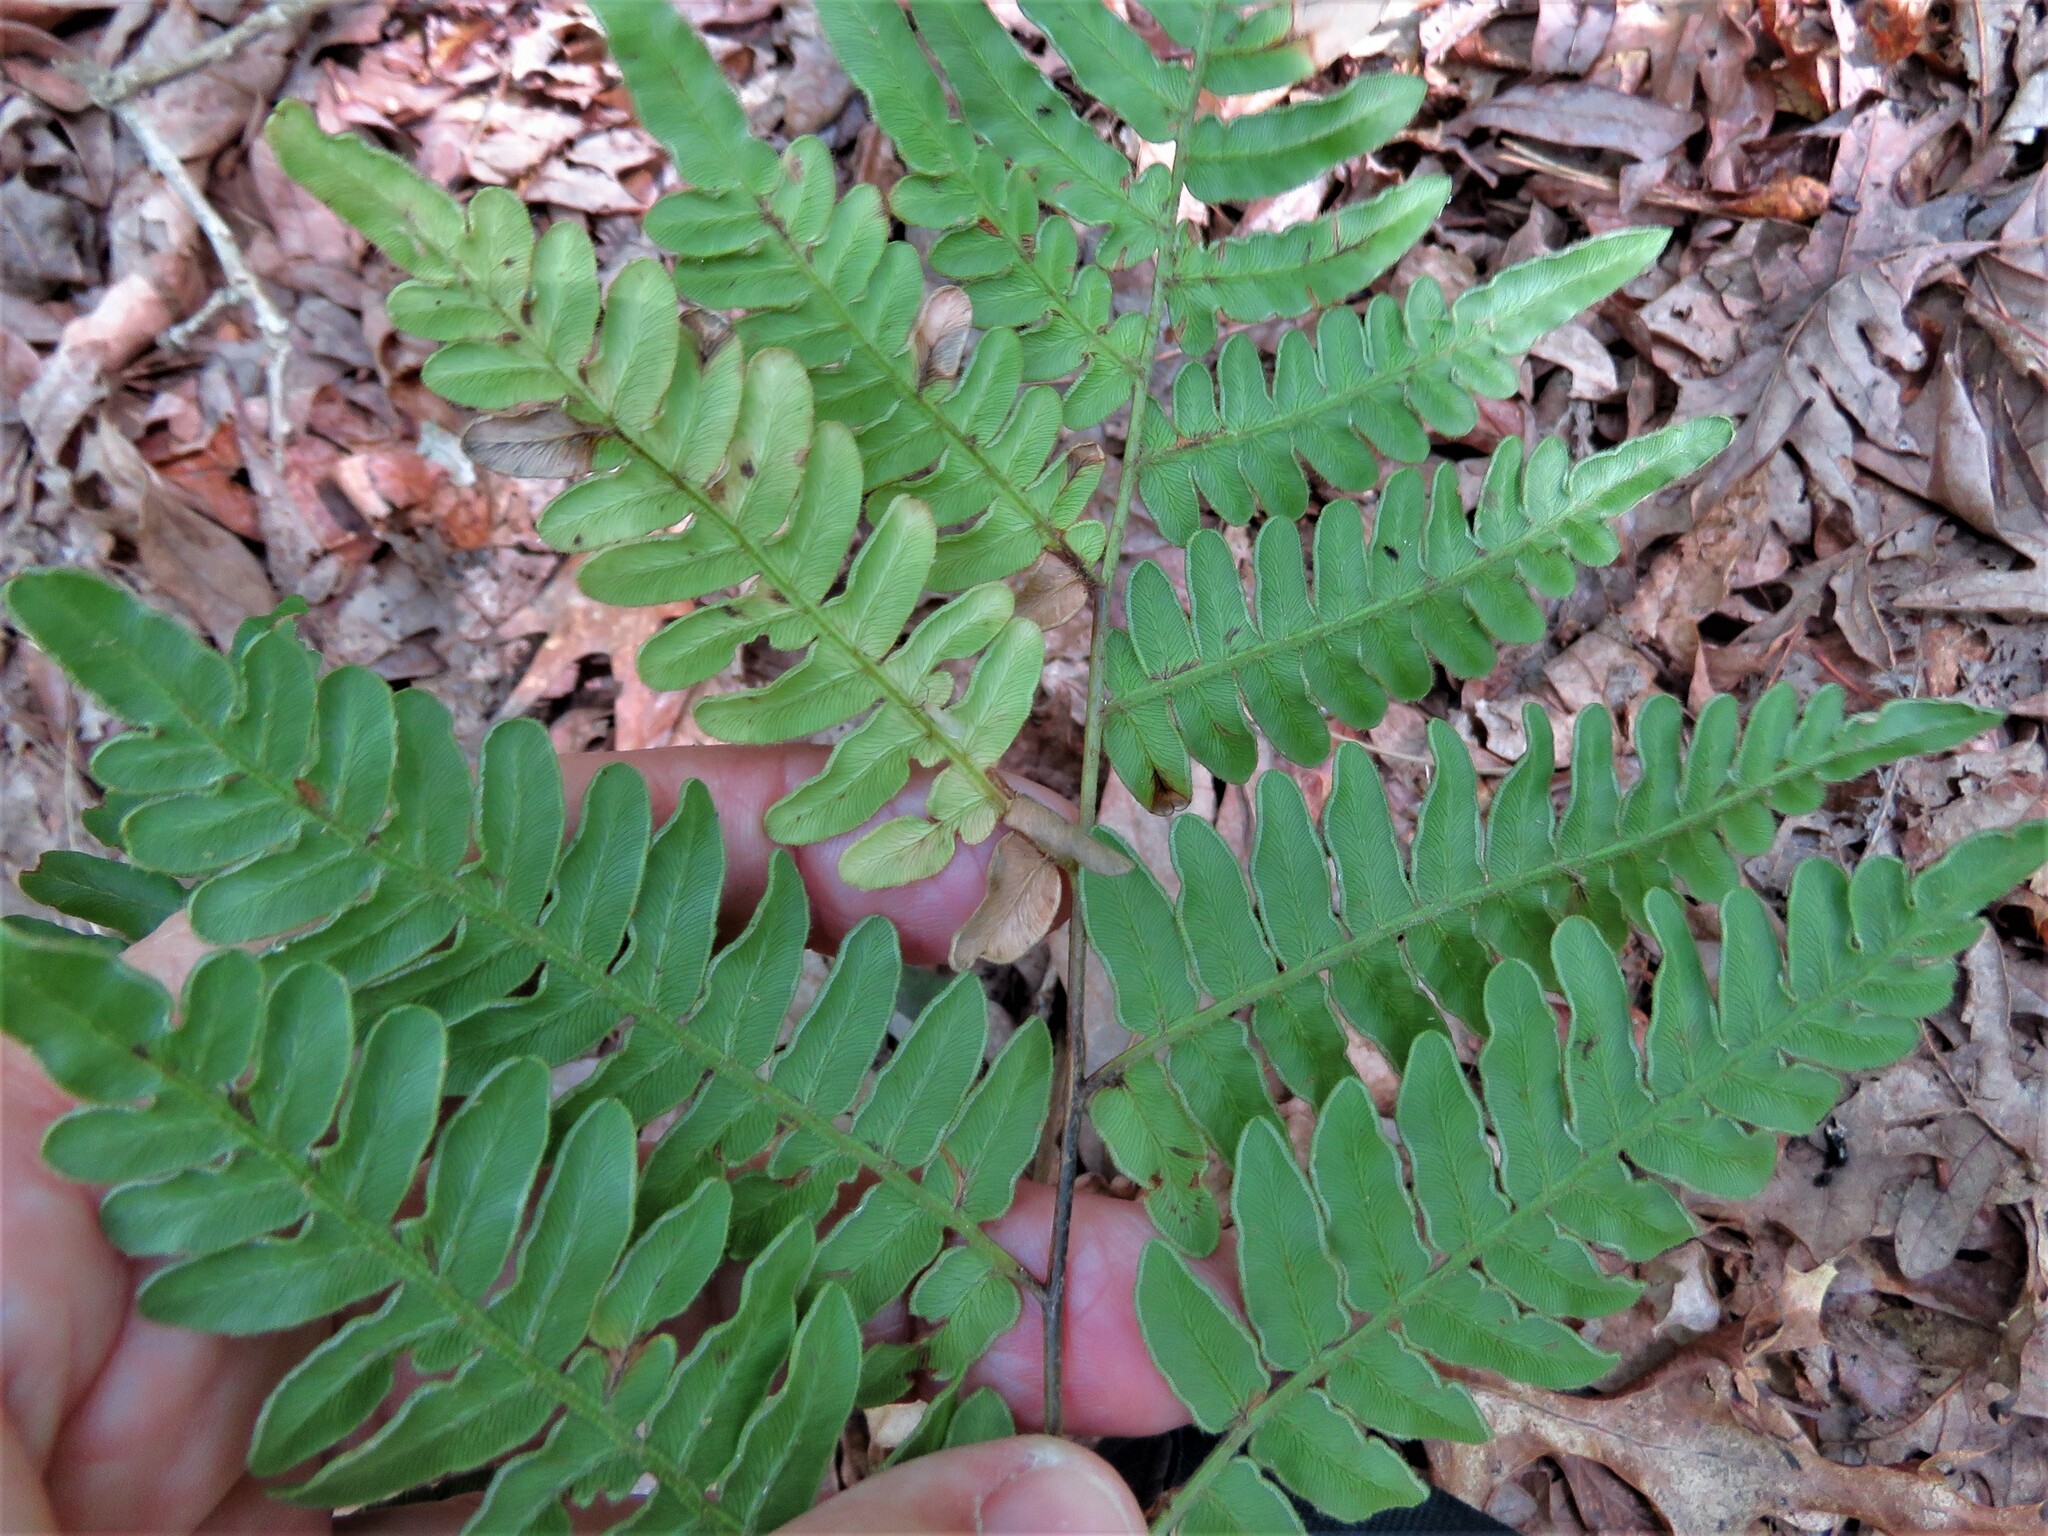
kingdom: Plantae
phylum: Tracheophyta
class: Polypodiopsida
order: Polypodiales
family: Dennstaedtiaceae
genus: Pteridium
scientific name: Pteridium aquilinum
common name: Bracken
